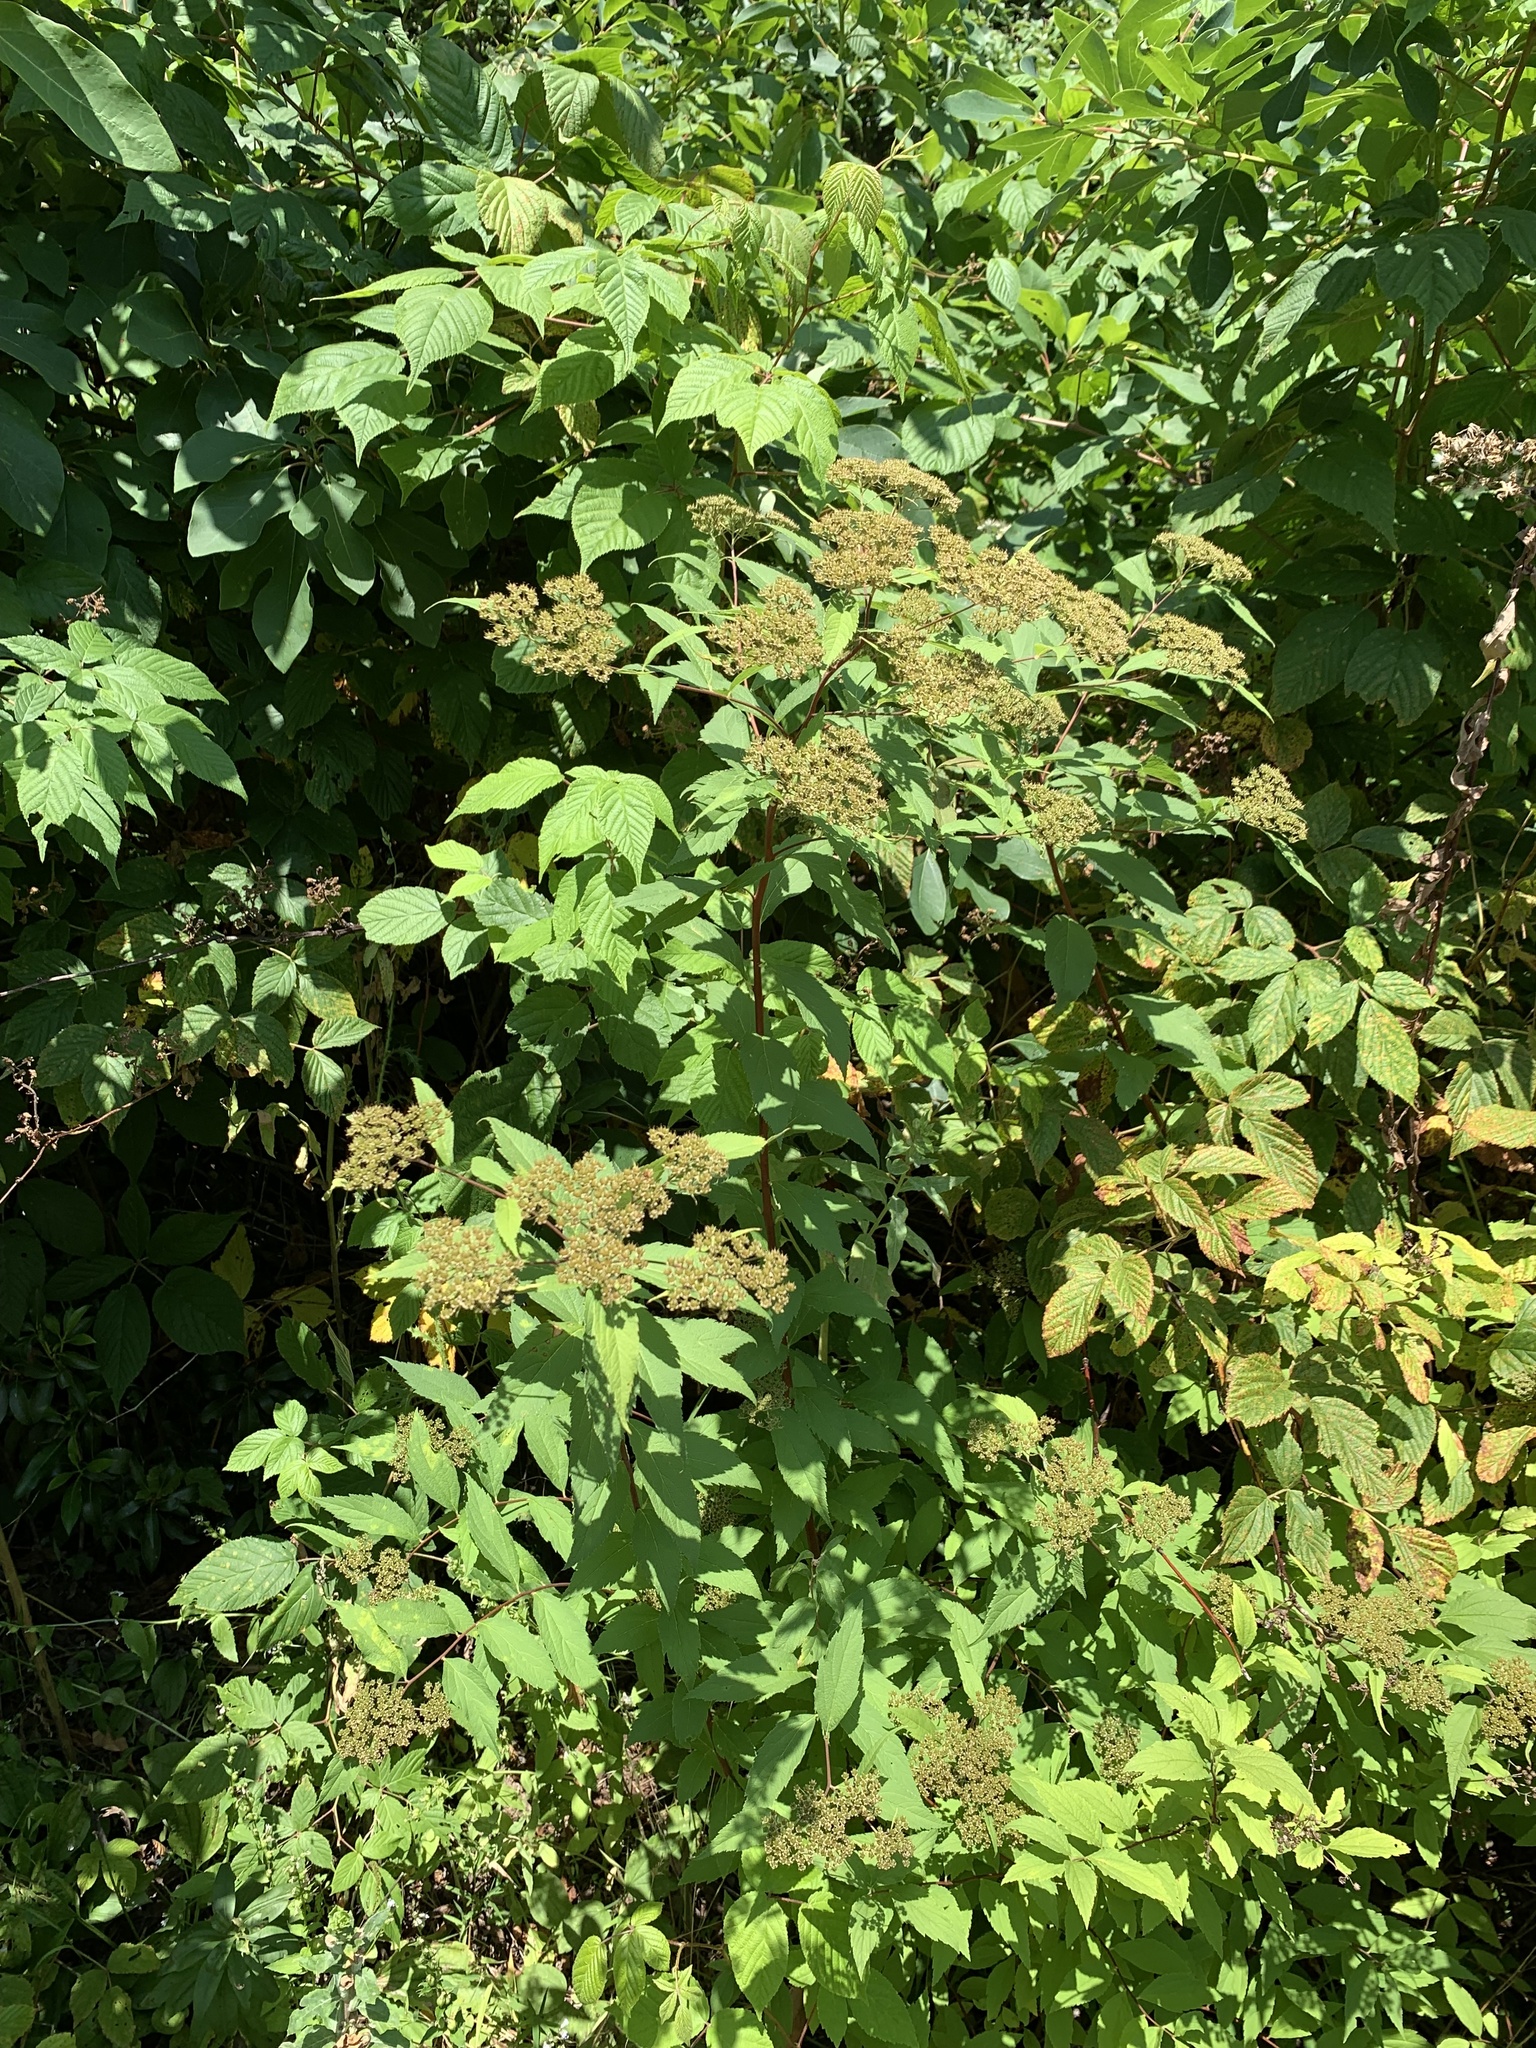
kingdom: Plantae
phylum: Tracheophyta
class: Magnoliopsida
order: Rosales
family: Rosaceae
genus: Spiraea
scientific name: Spiraea japonica
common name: Japanese spiraea
